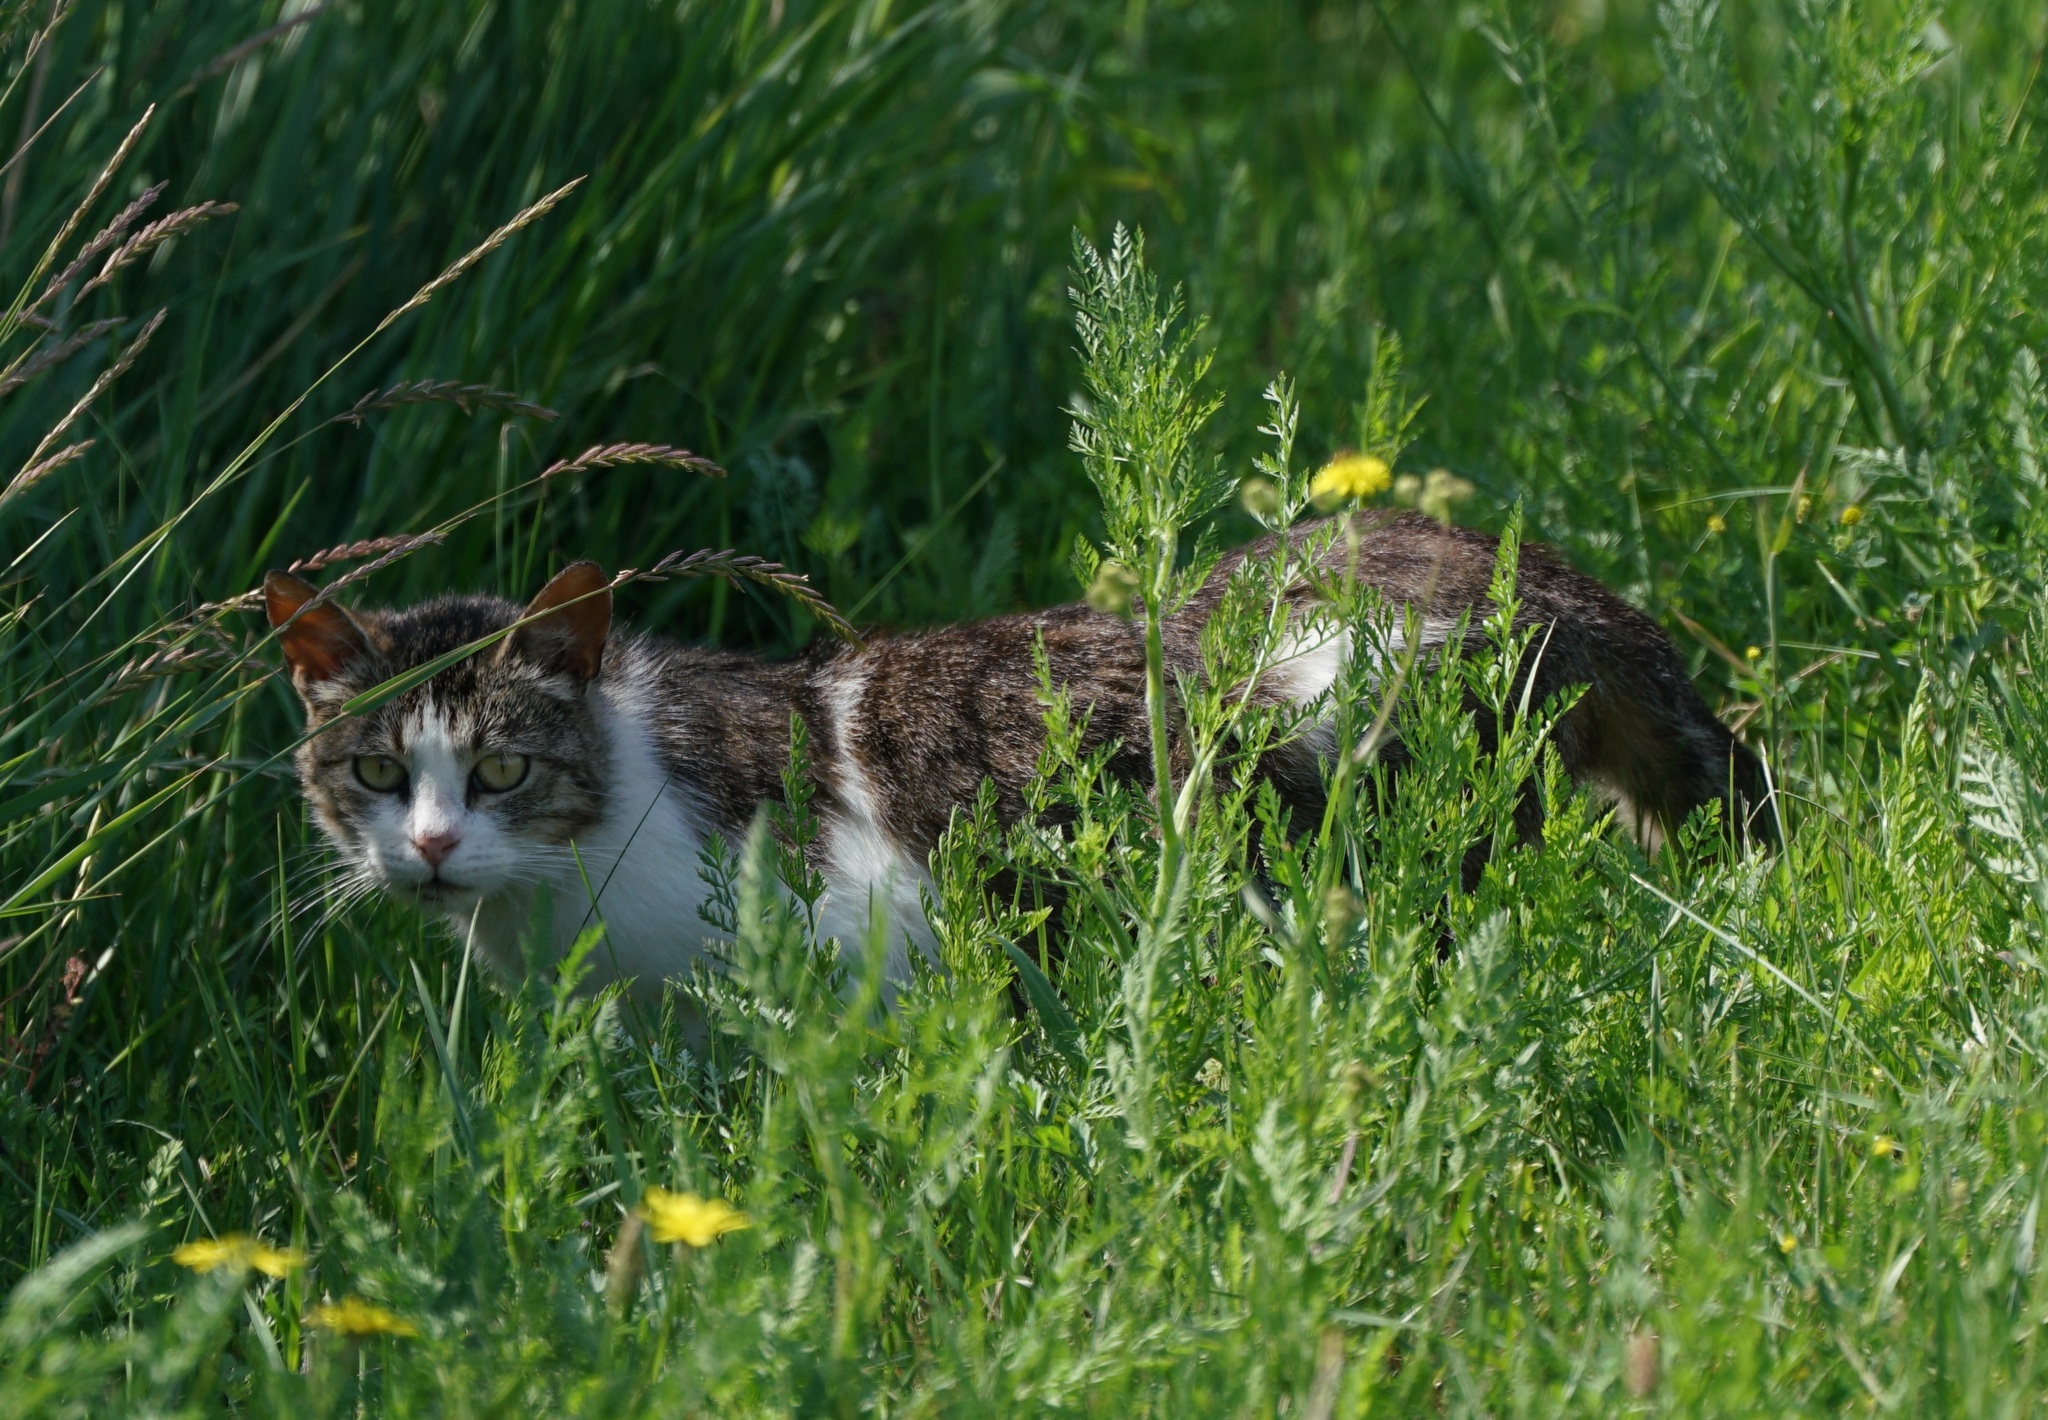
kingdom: Animalia
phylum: Chordata
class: Mammalia
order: Carnivora
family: Felidae
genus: Felis
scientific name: Felis catus
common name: Domestic cat
